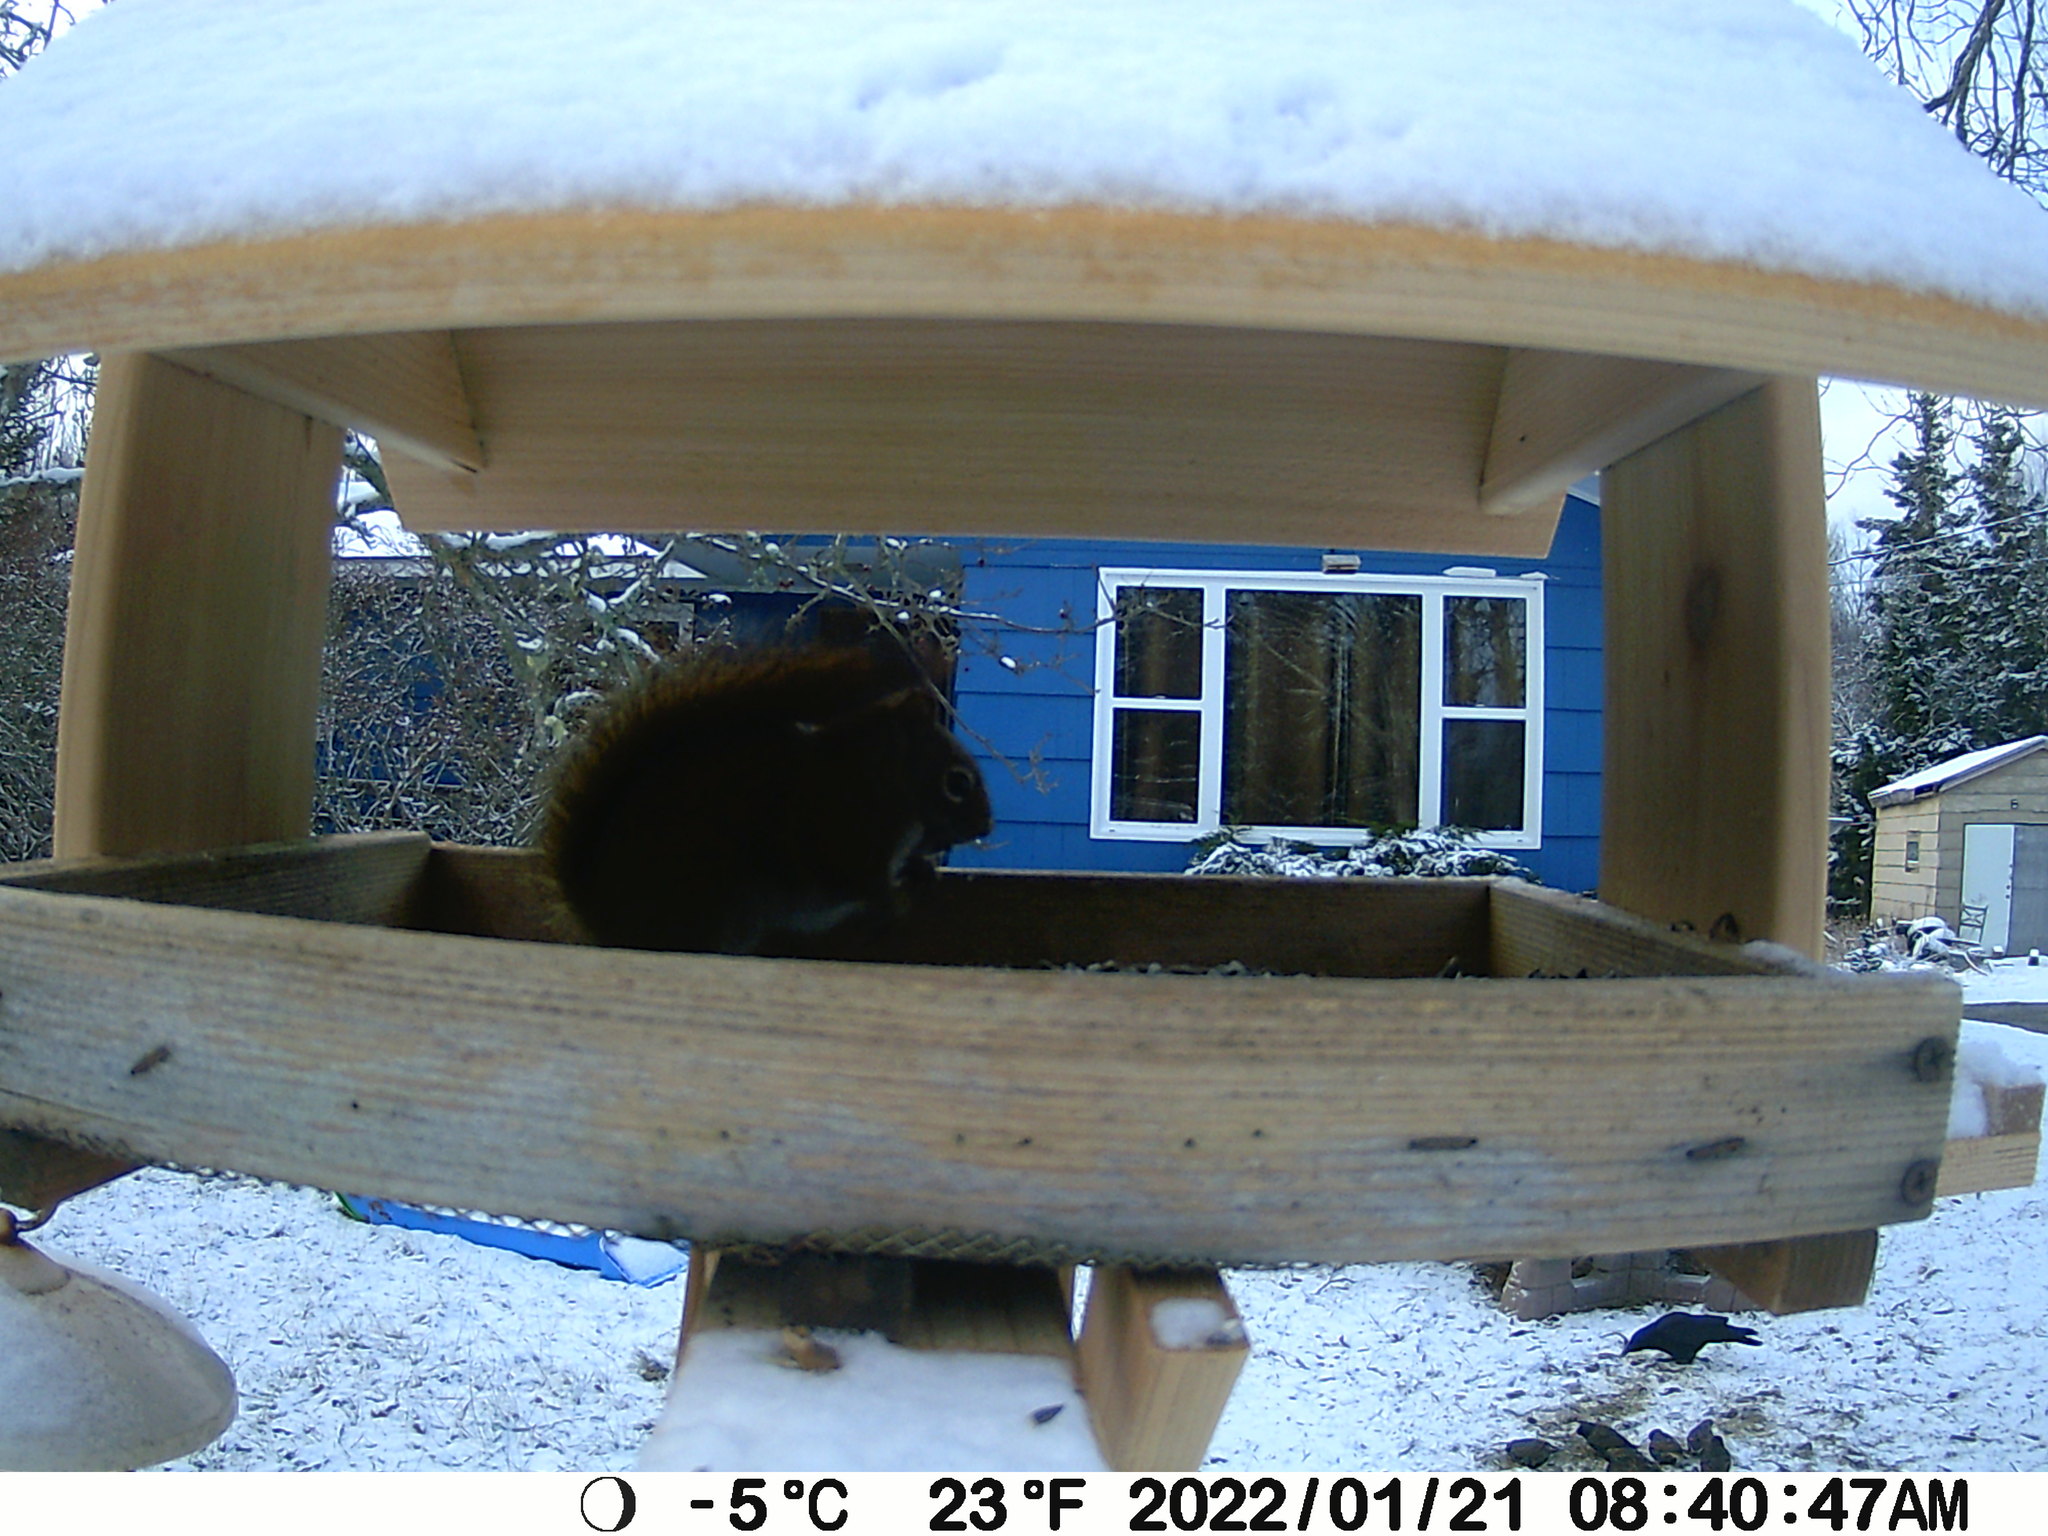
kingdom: Animalia
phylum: Chordata
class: Mammalia
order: Rodentia
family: Sciuridae
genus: Tamiasciurus
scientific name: Tamiasciurus hudsonicus
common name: Red squirrel
